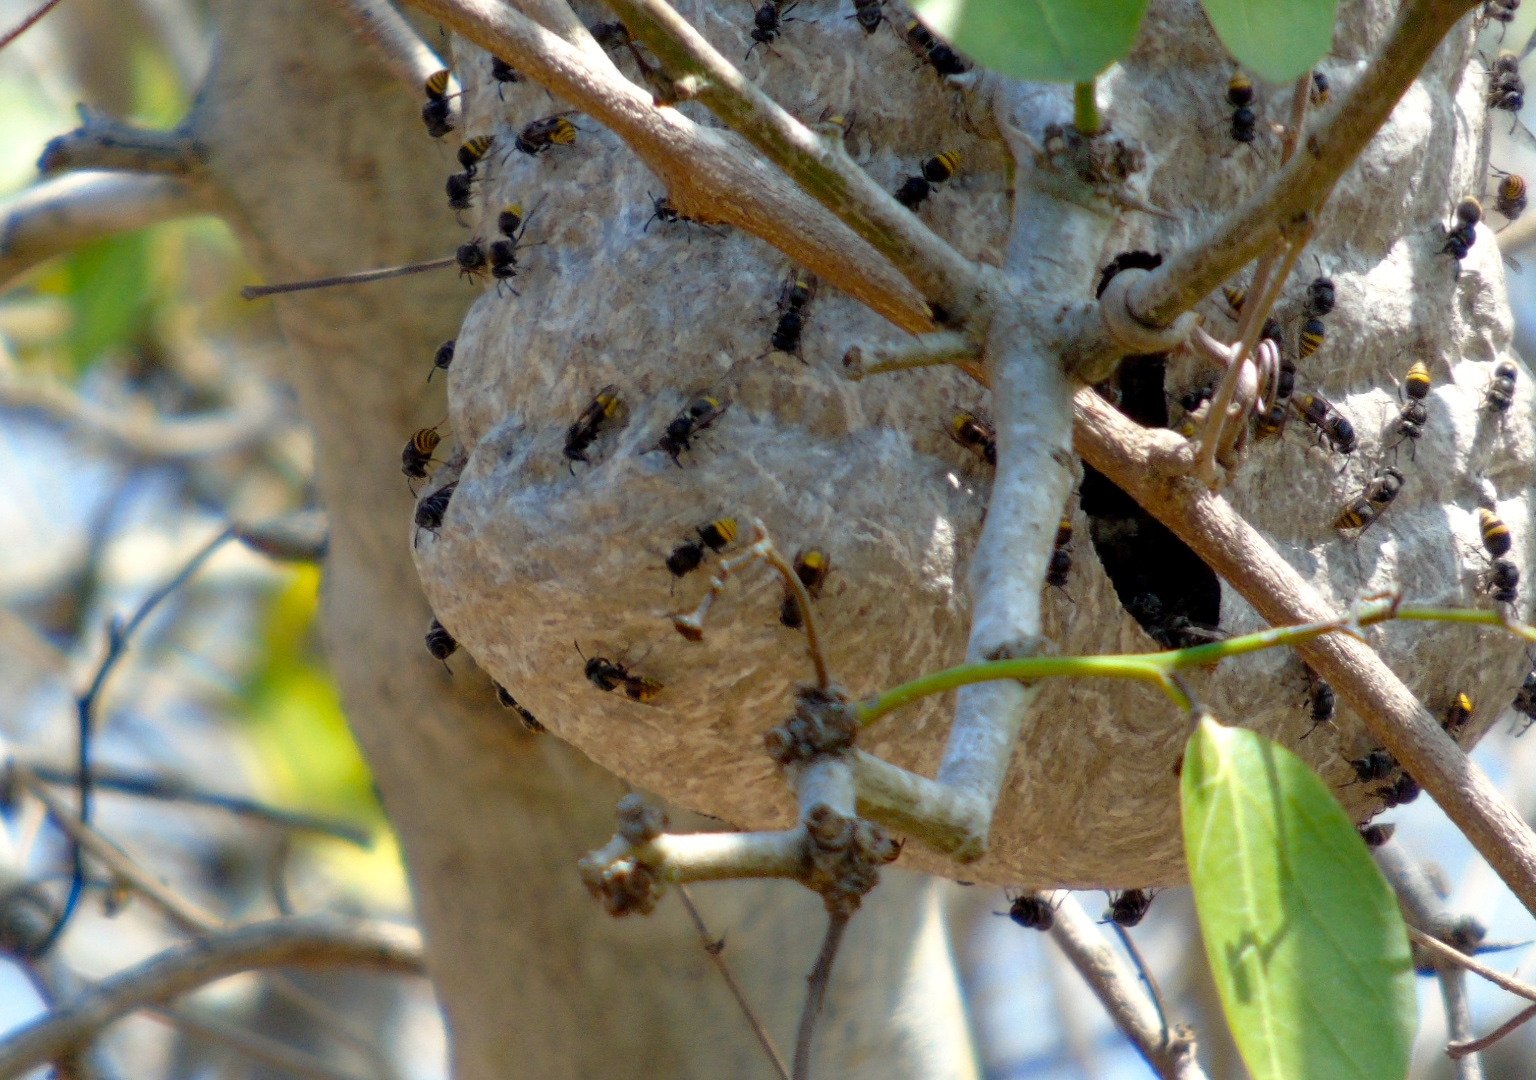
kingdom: Animalia
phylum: Arthropoda
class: Insecta
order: Hymenoptera
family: Vespidae
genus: Brachygastra
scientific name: Brachygastra azteca
